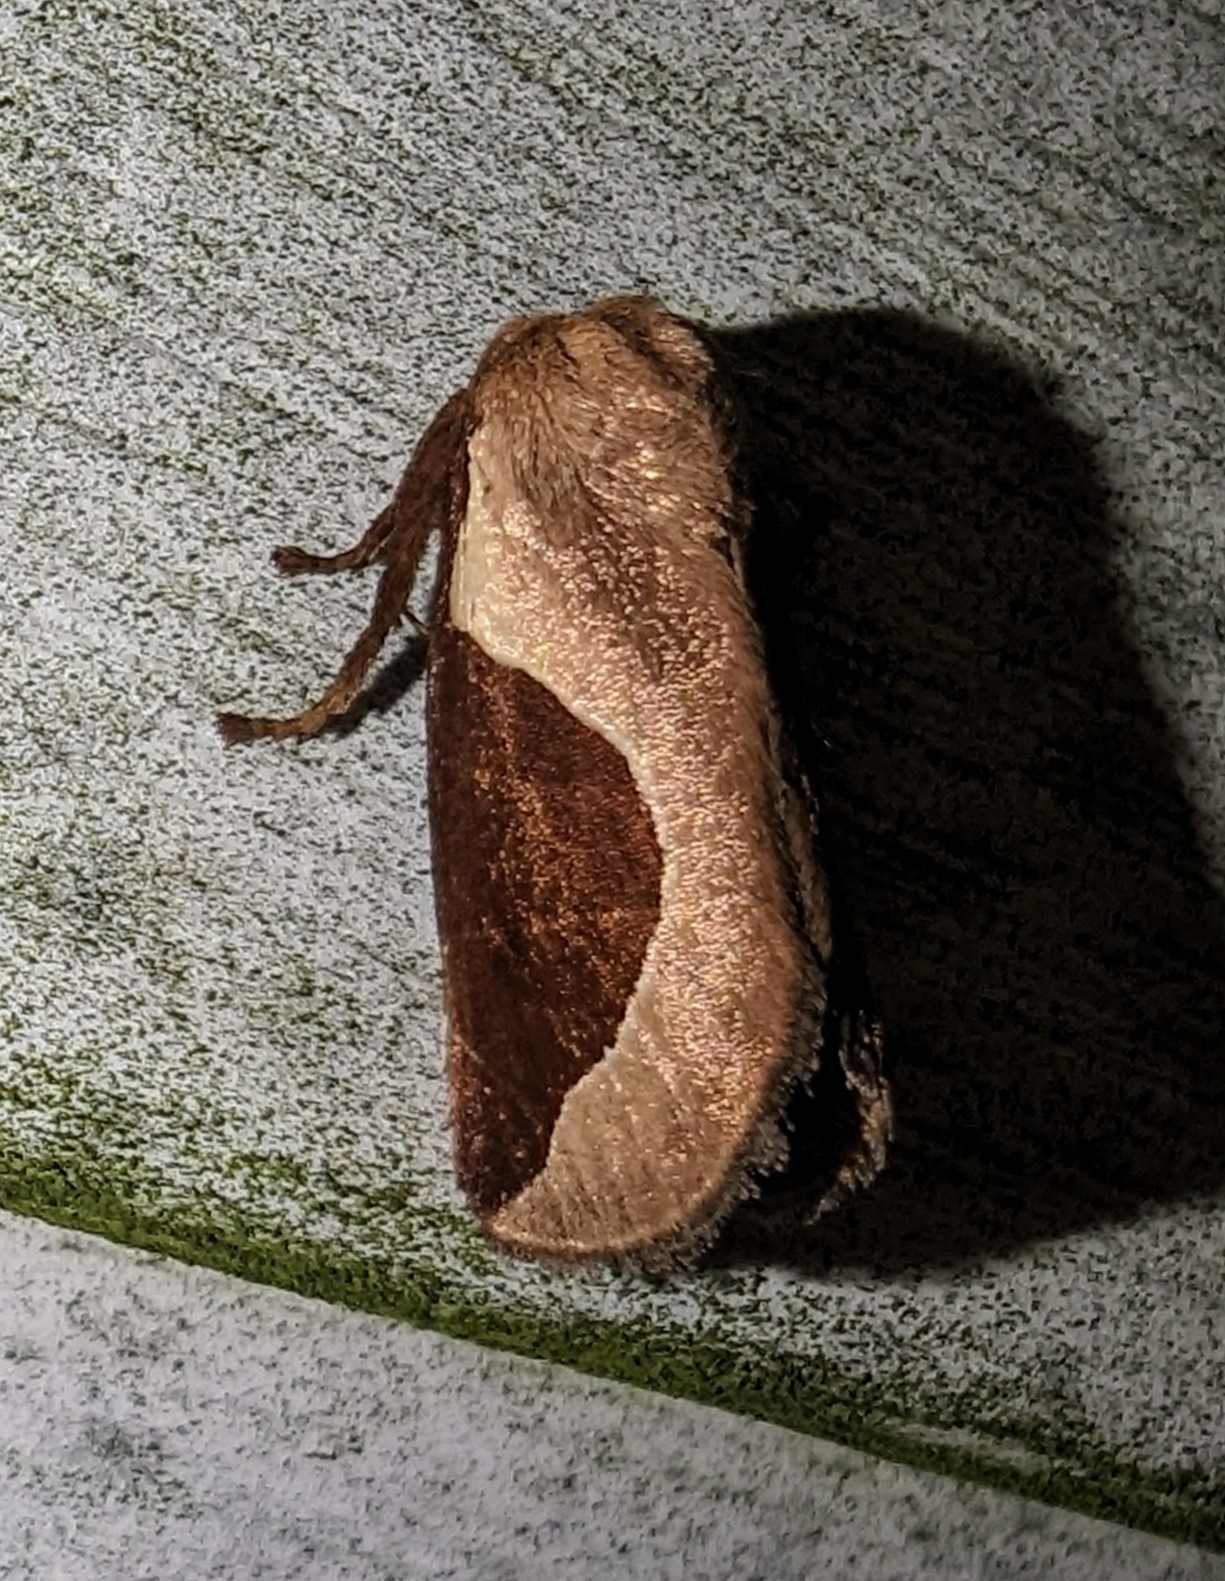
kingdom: Animalia
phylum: Arthropoda
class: Insecta
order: Lepidoptera
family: Limacodidae
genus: Prolimacodes
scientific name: Prolimacodes badia
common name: Skiff moth
